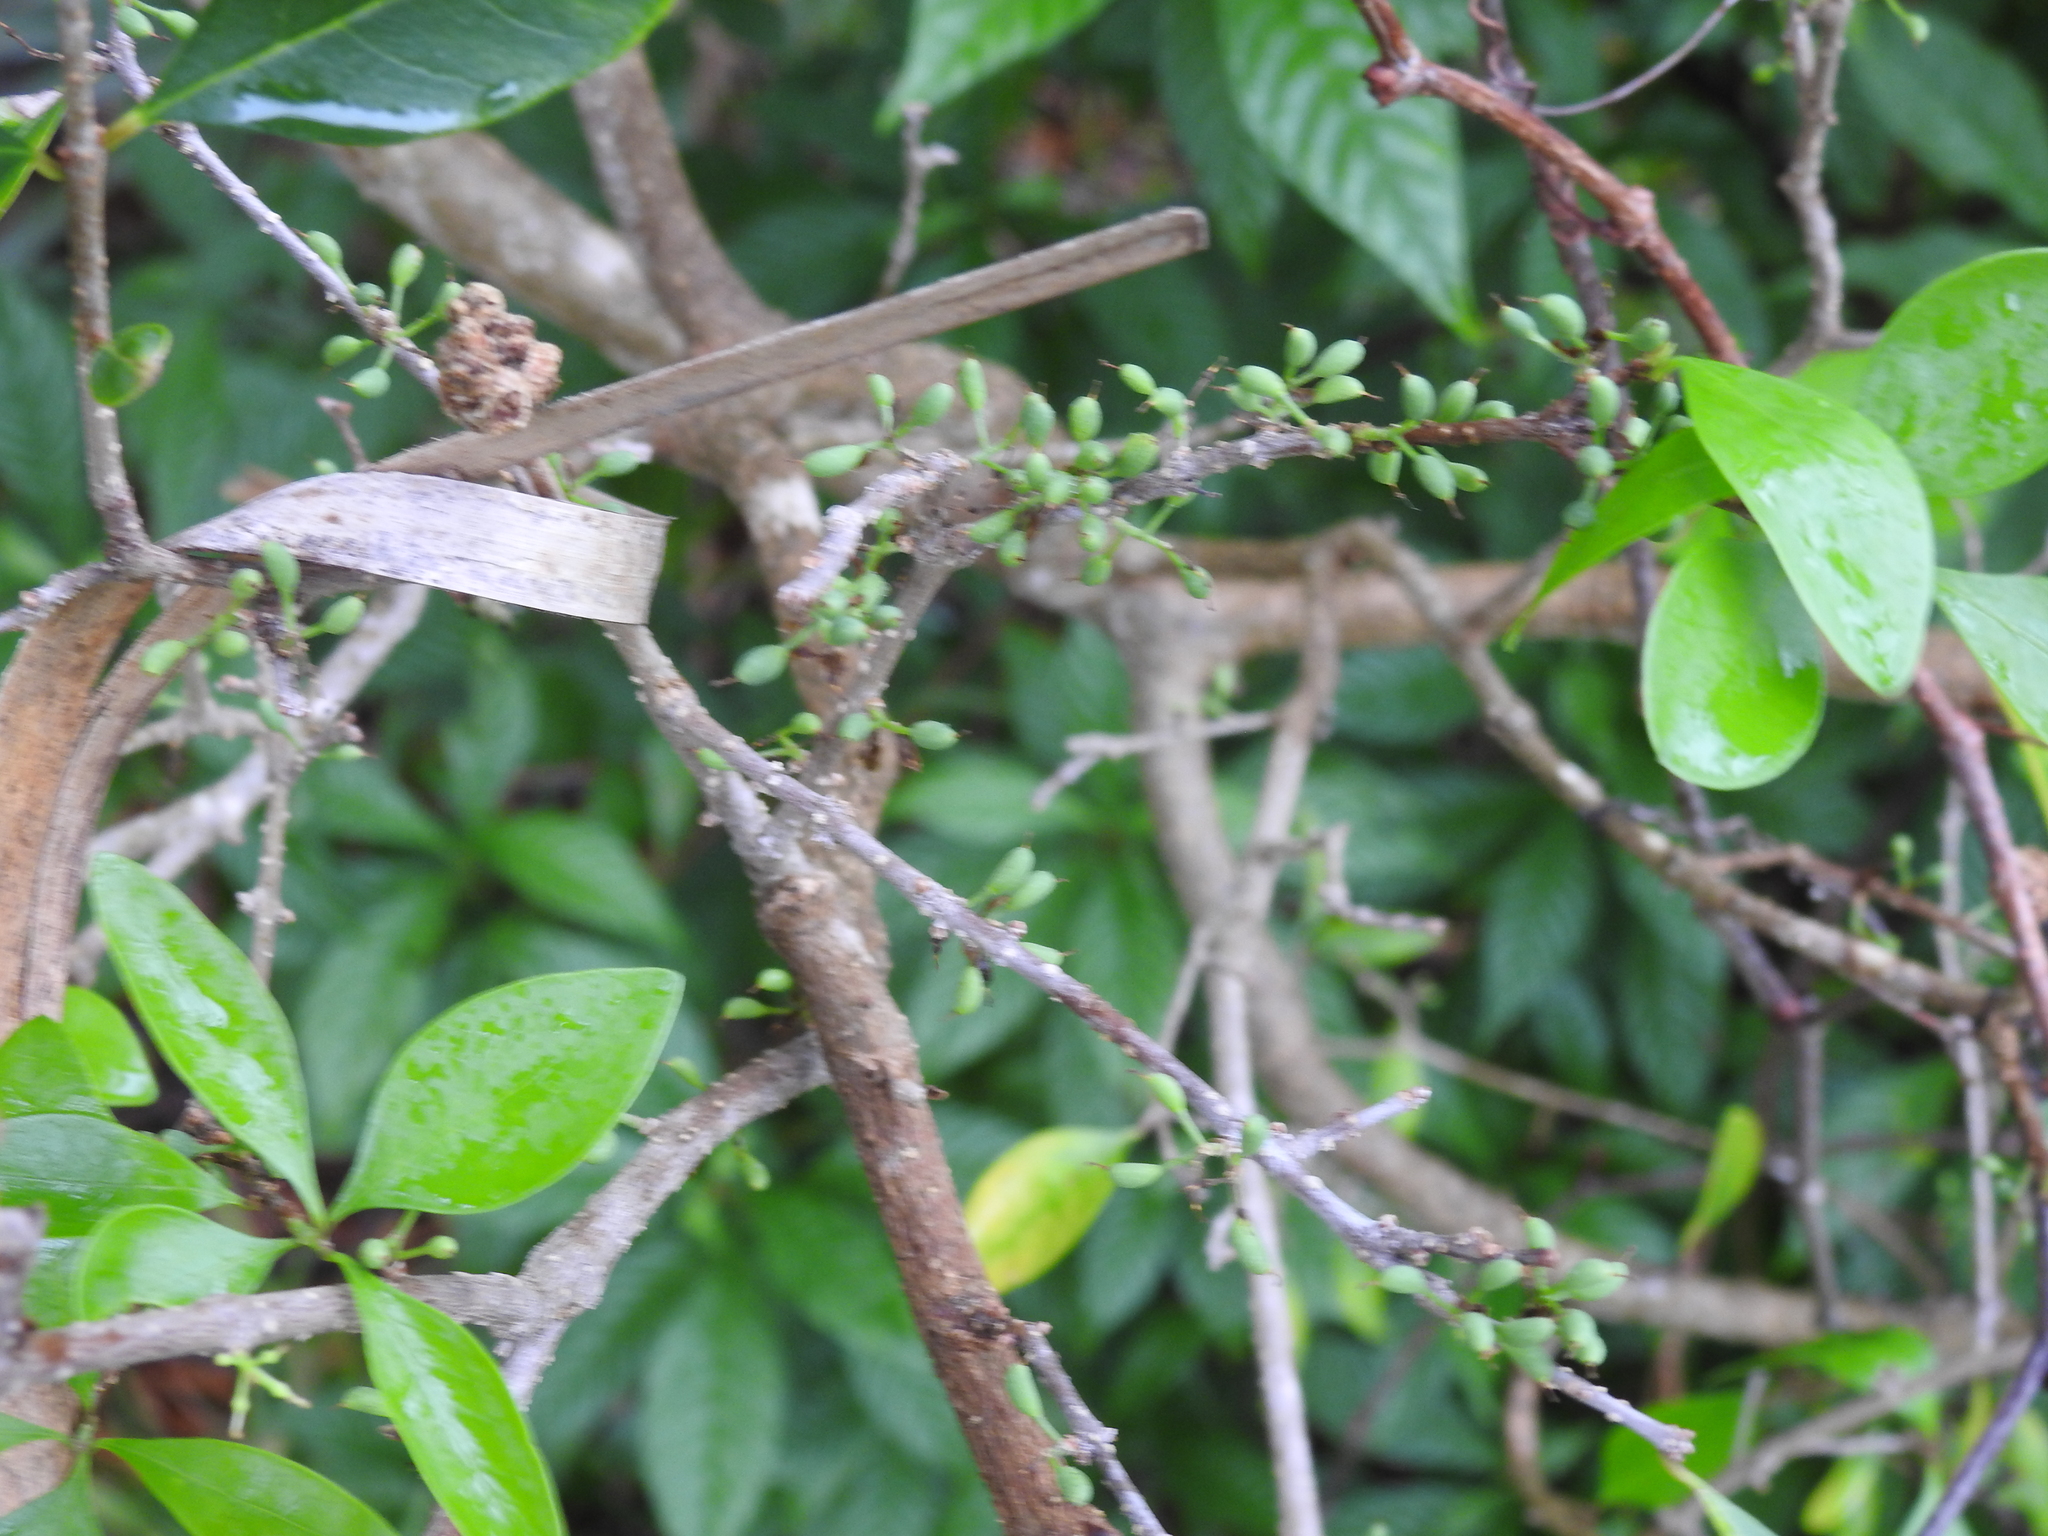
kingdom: Plantae
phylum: Tracheophyta
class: Magnoliopsida
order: Lamiales
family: Oleaceae
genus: Forestiera
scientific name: Forestiera segregata
